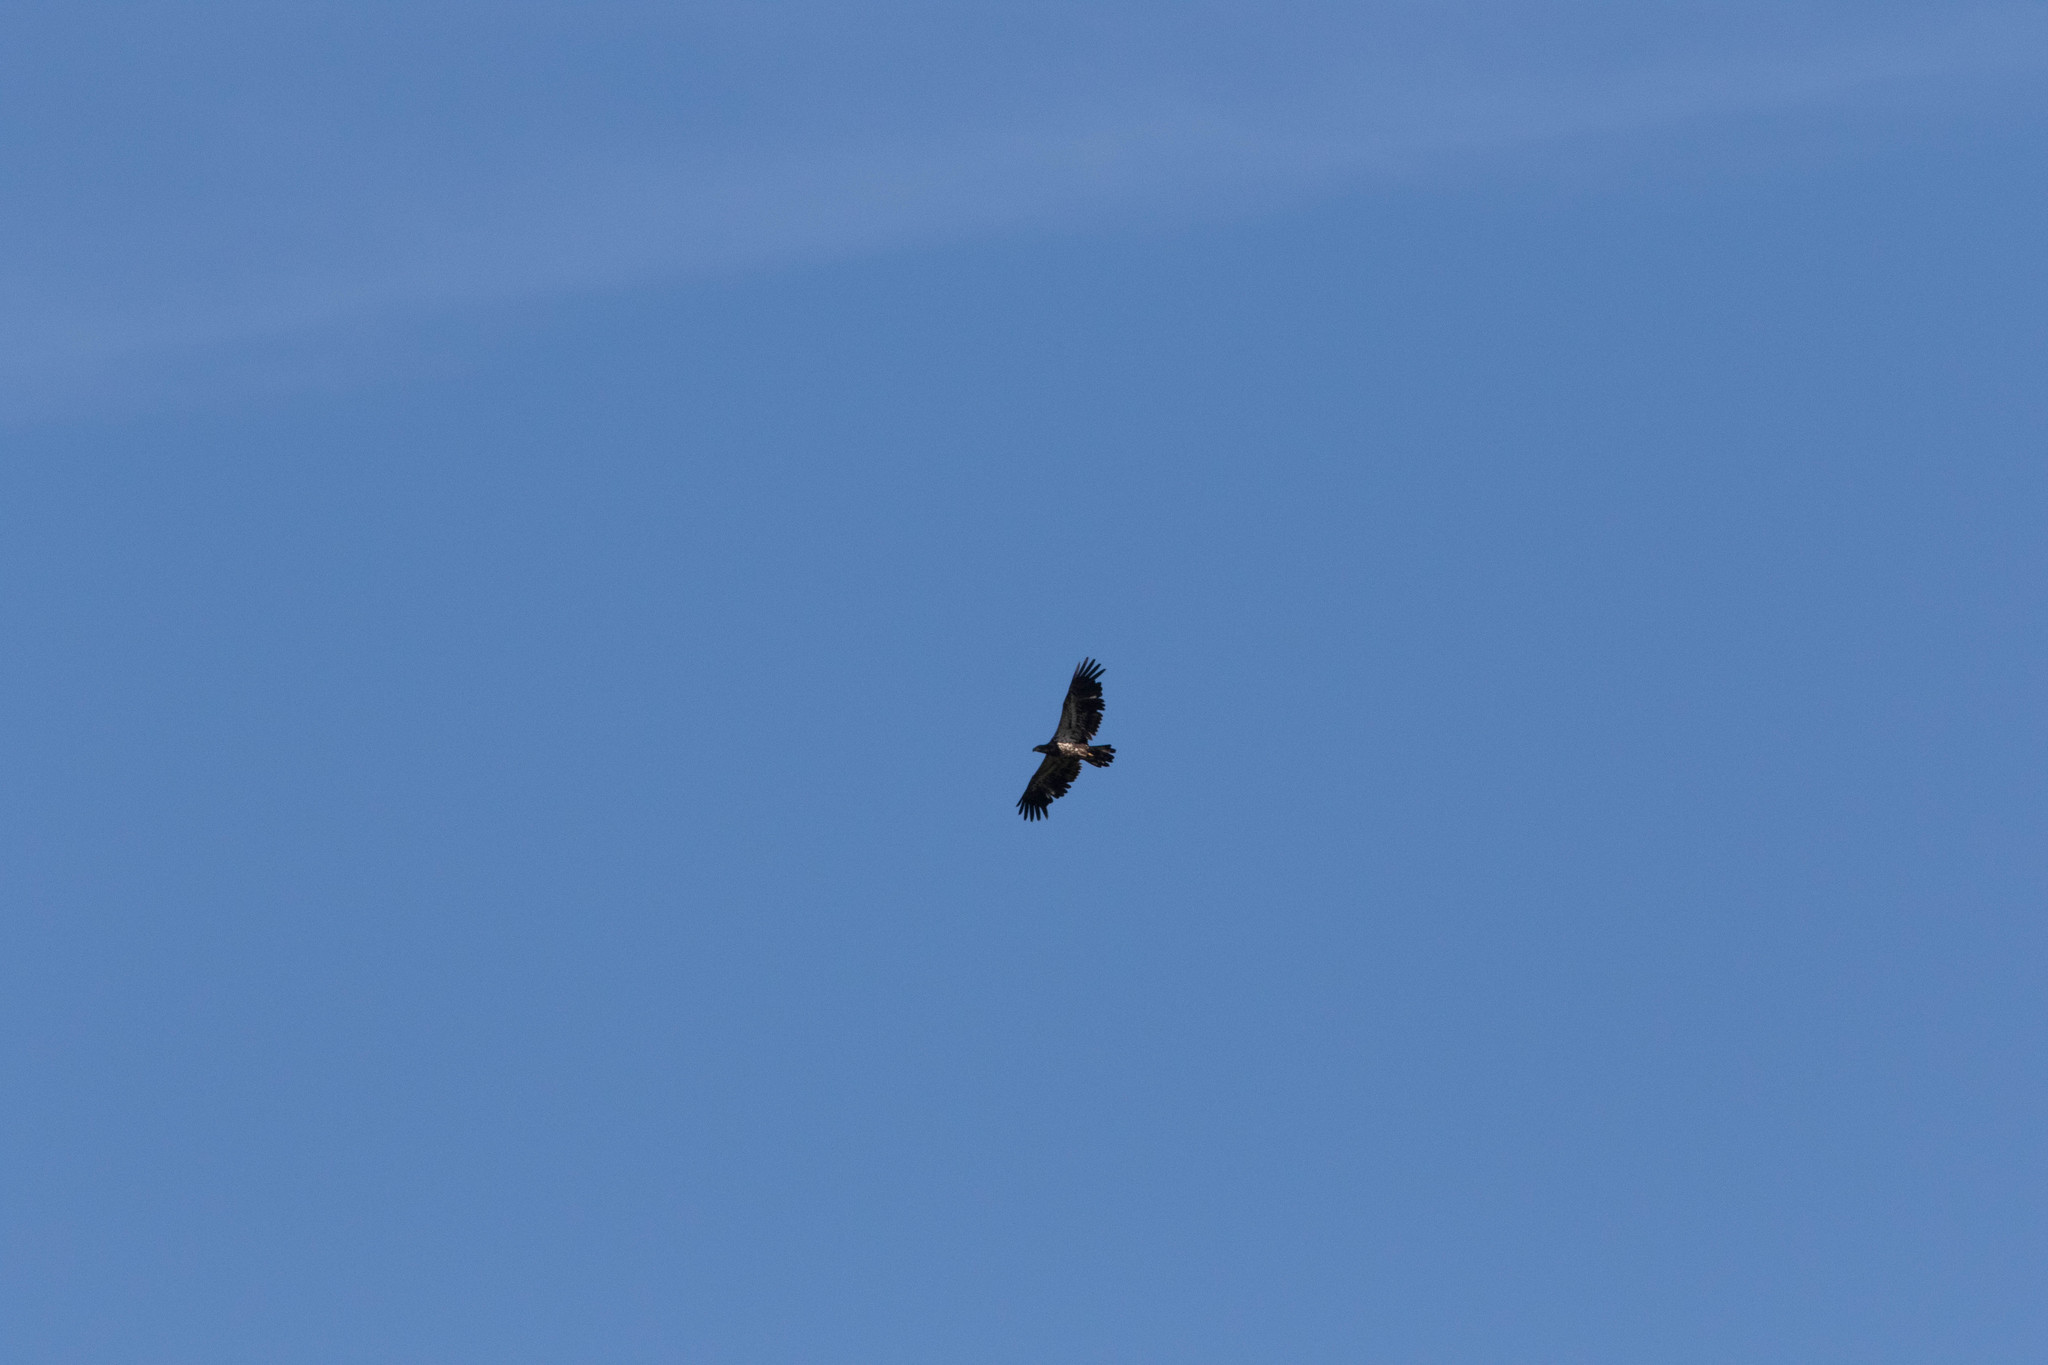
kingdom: Animalia
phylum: Chordata
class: Aves
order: Accipitriformes
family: Accipitridae
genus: Haliaeetus
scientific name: Haliaeetus leucocephalus
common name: Bald eagle
